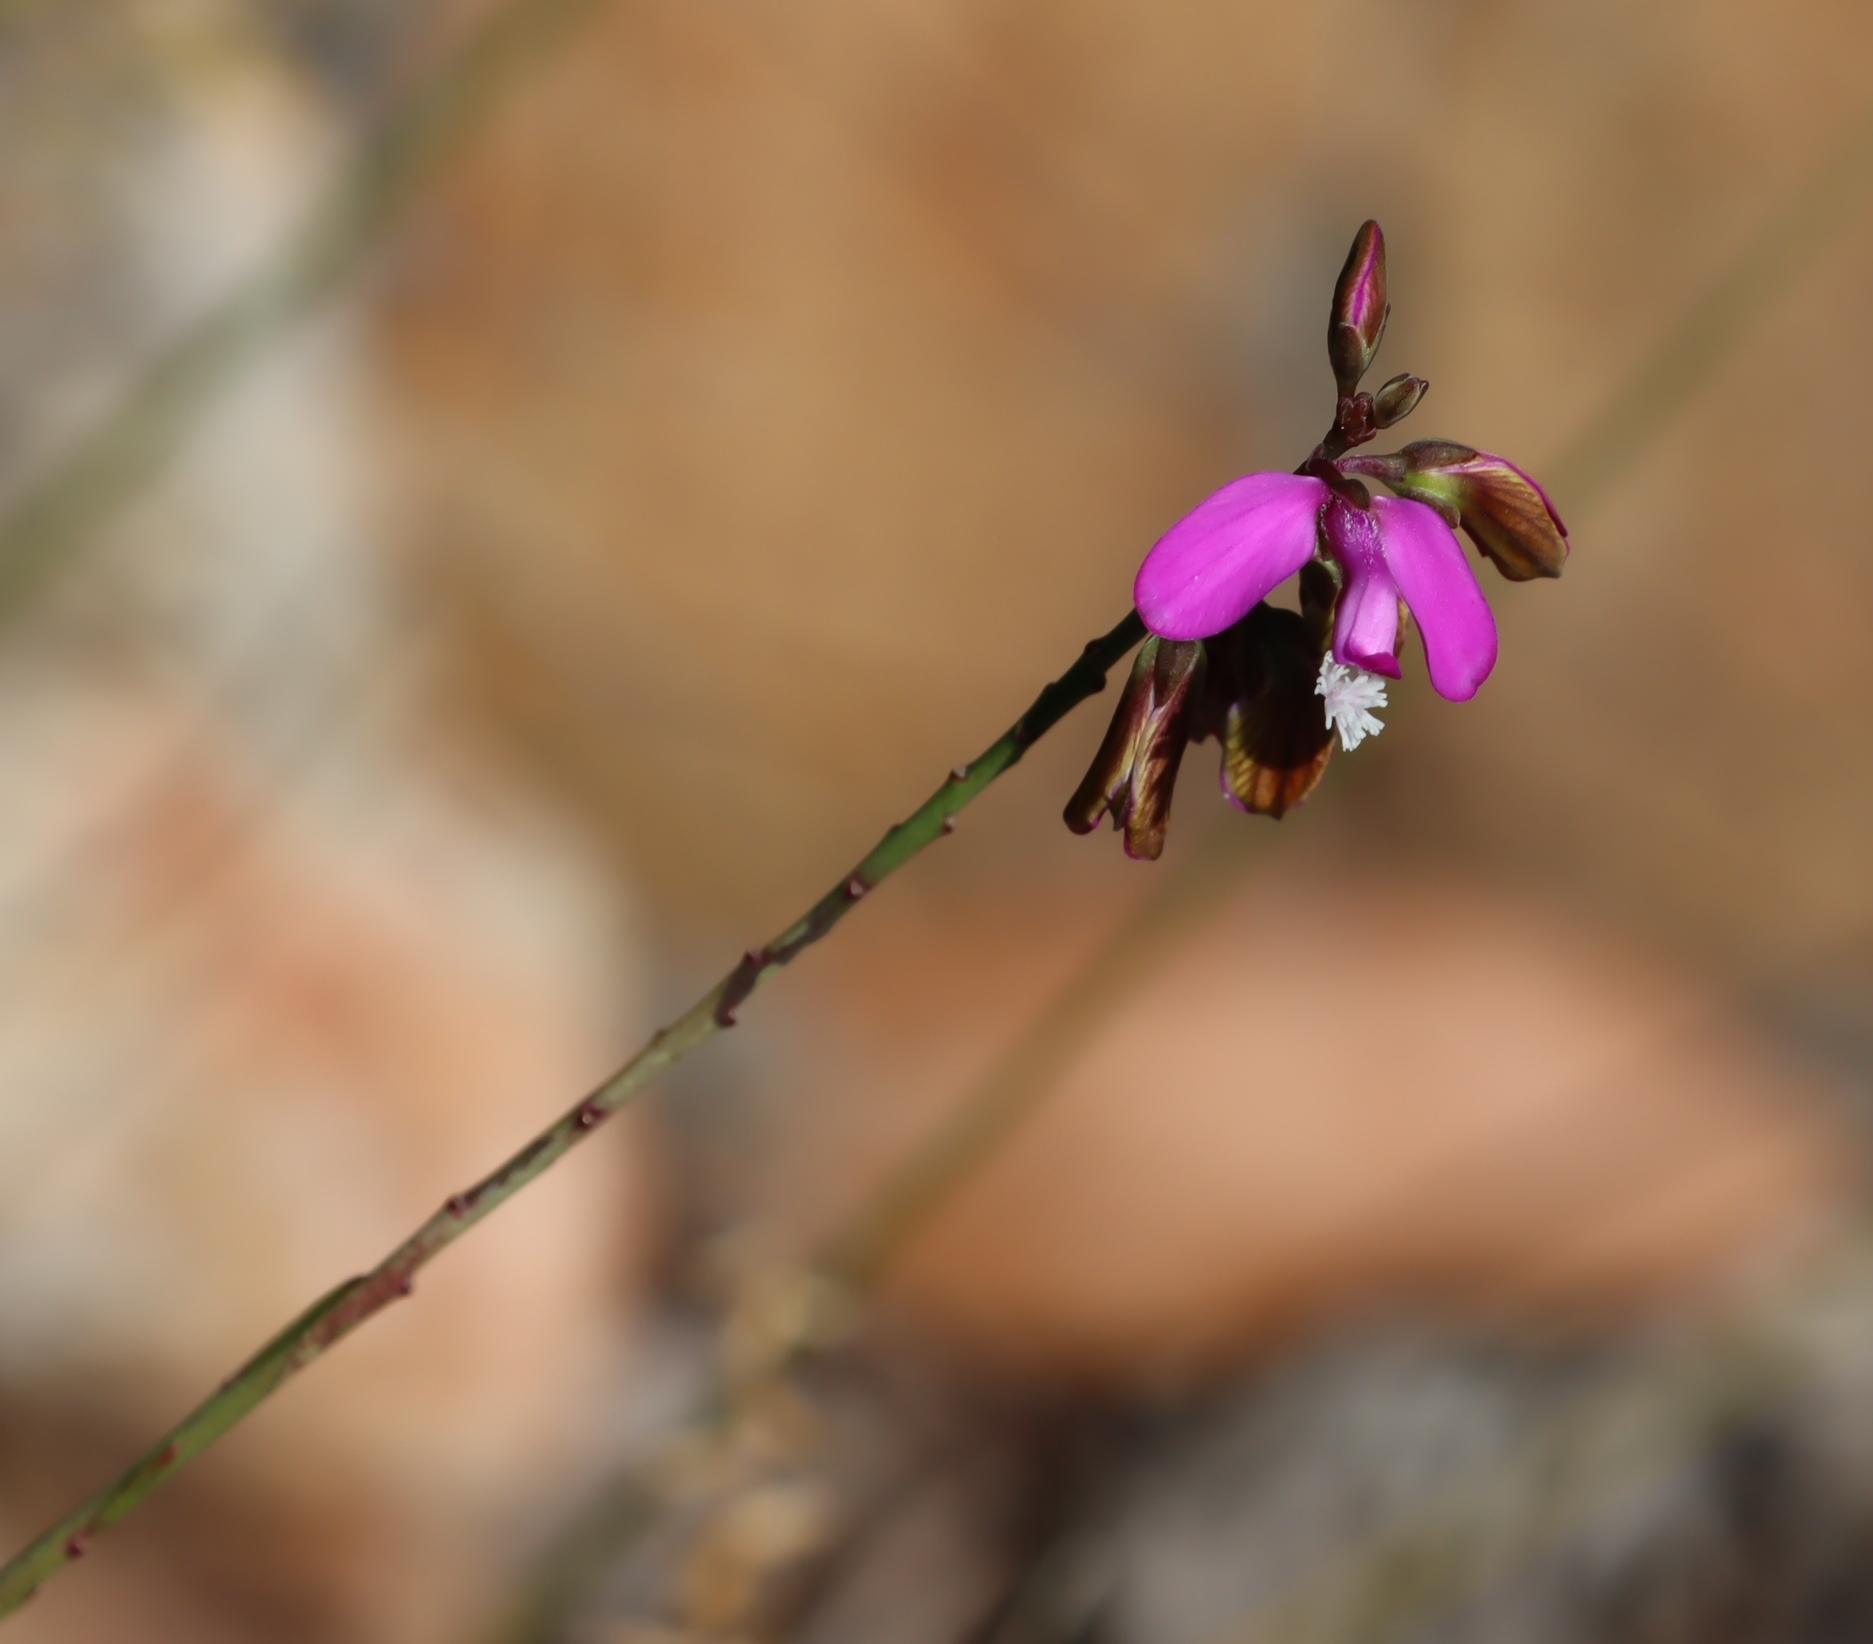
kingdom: Plantae
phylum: Tracheophyta
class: Magnoliopsida
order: Fabales
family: Polygalaceae
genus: Polygala
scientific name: Polygala garcini
